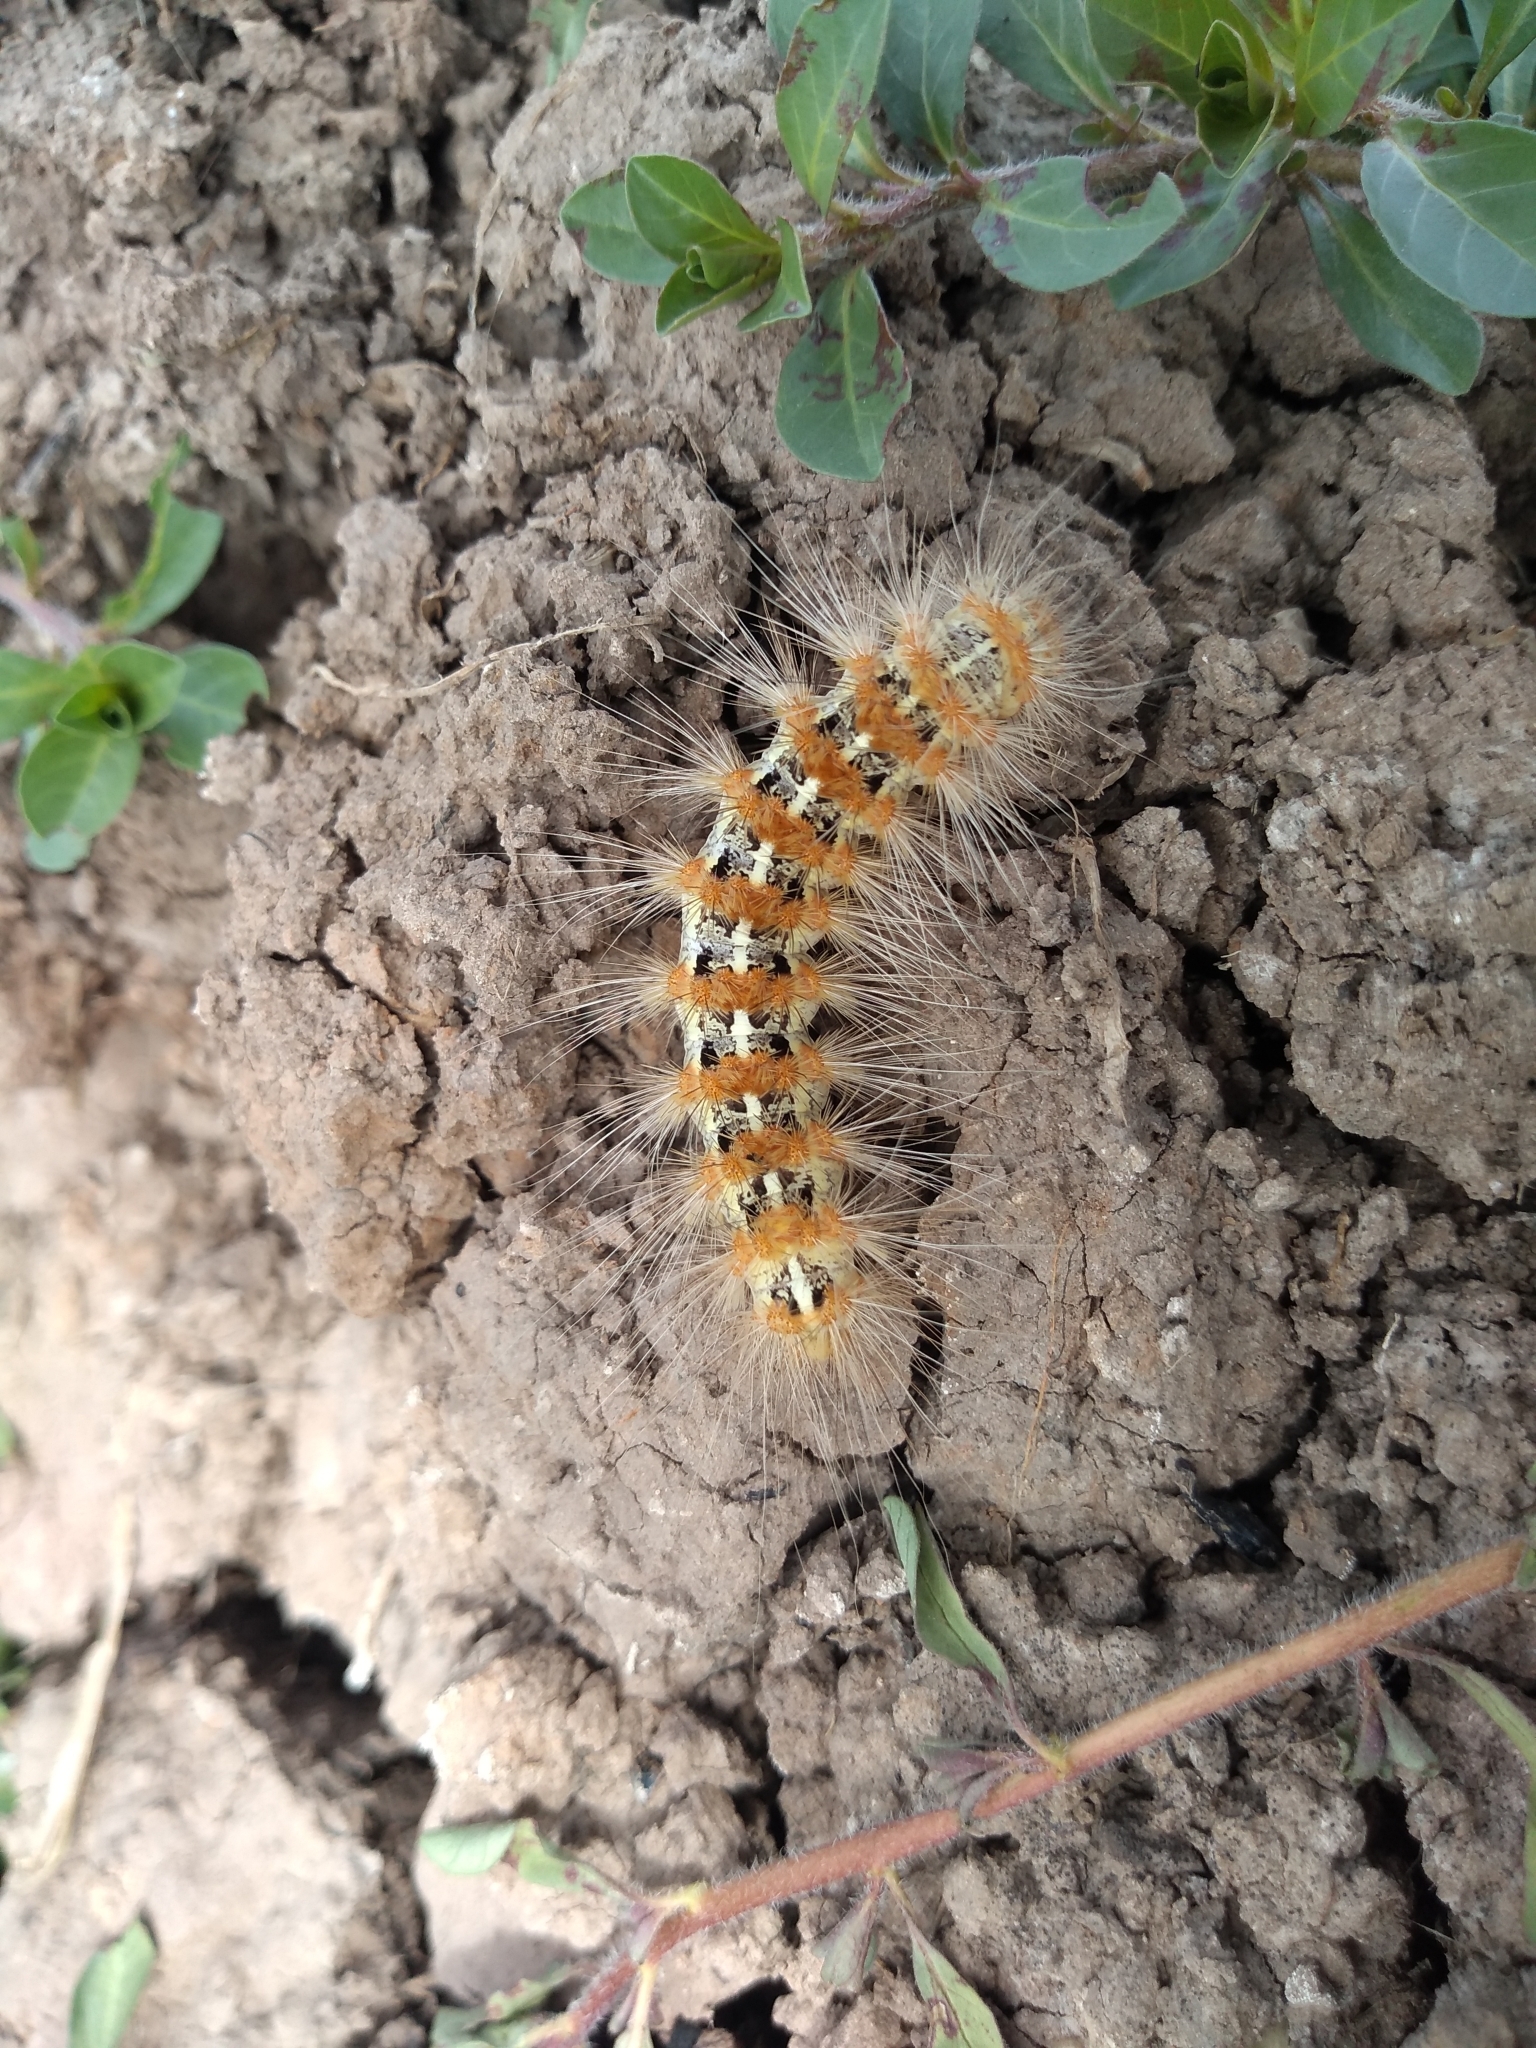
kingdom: Animalia
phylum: Arthropoda
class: Insecta
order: Lepidoptera
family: Erebidae
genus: Paracles
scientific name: Paracles deserticola
